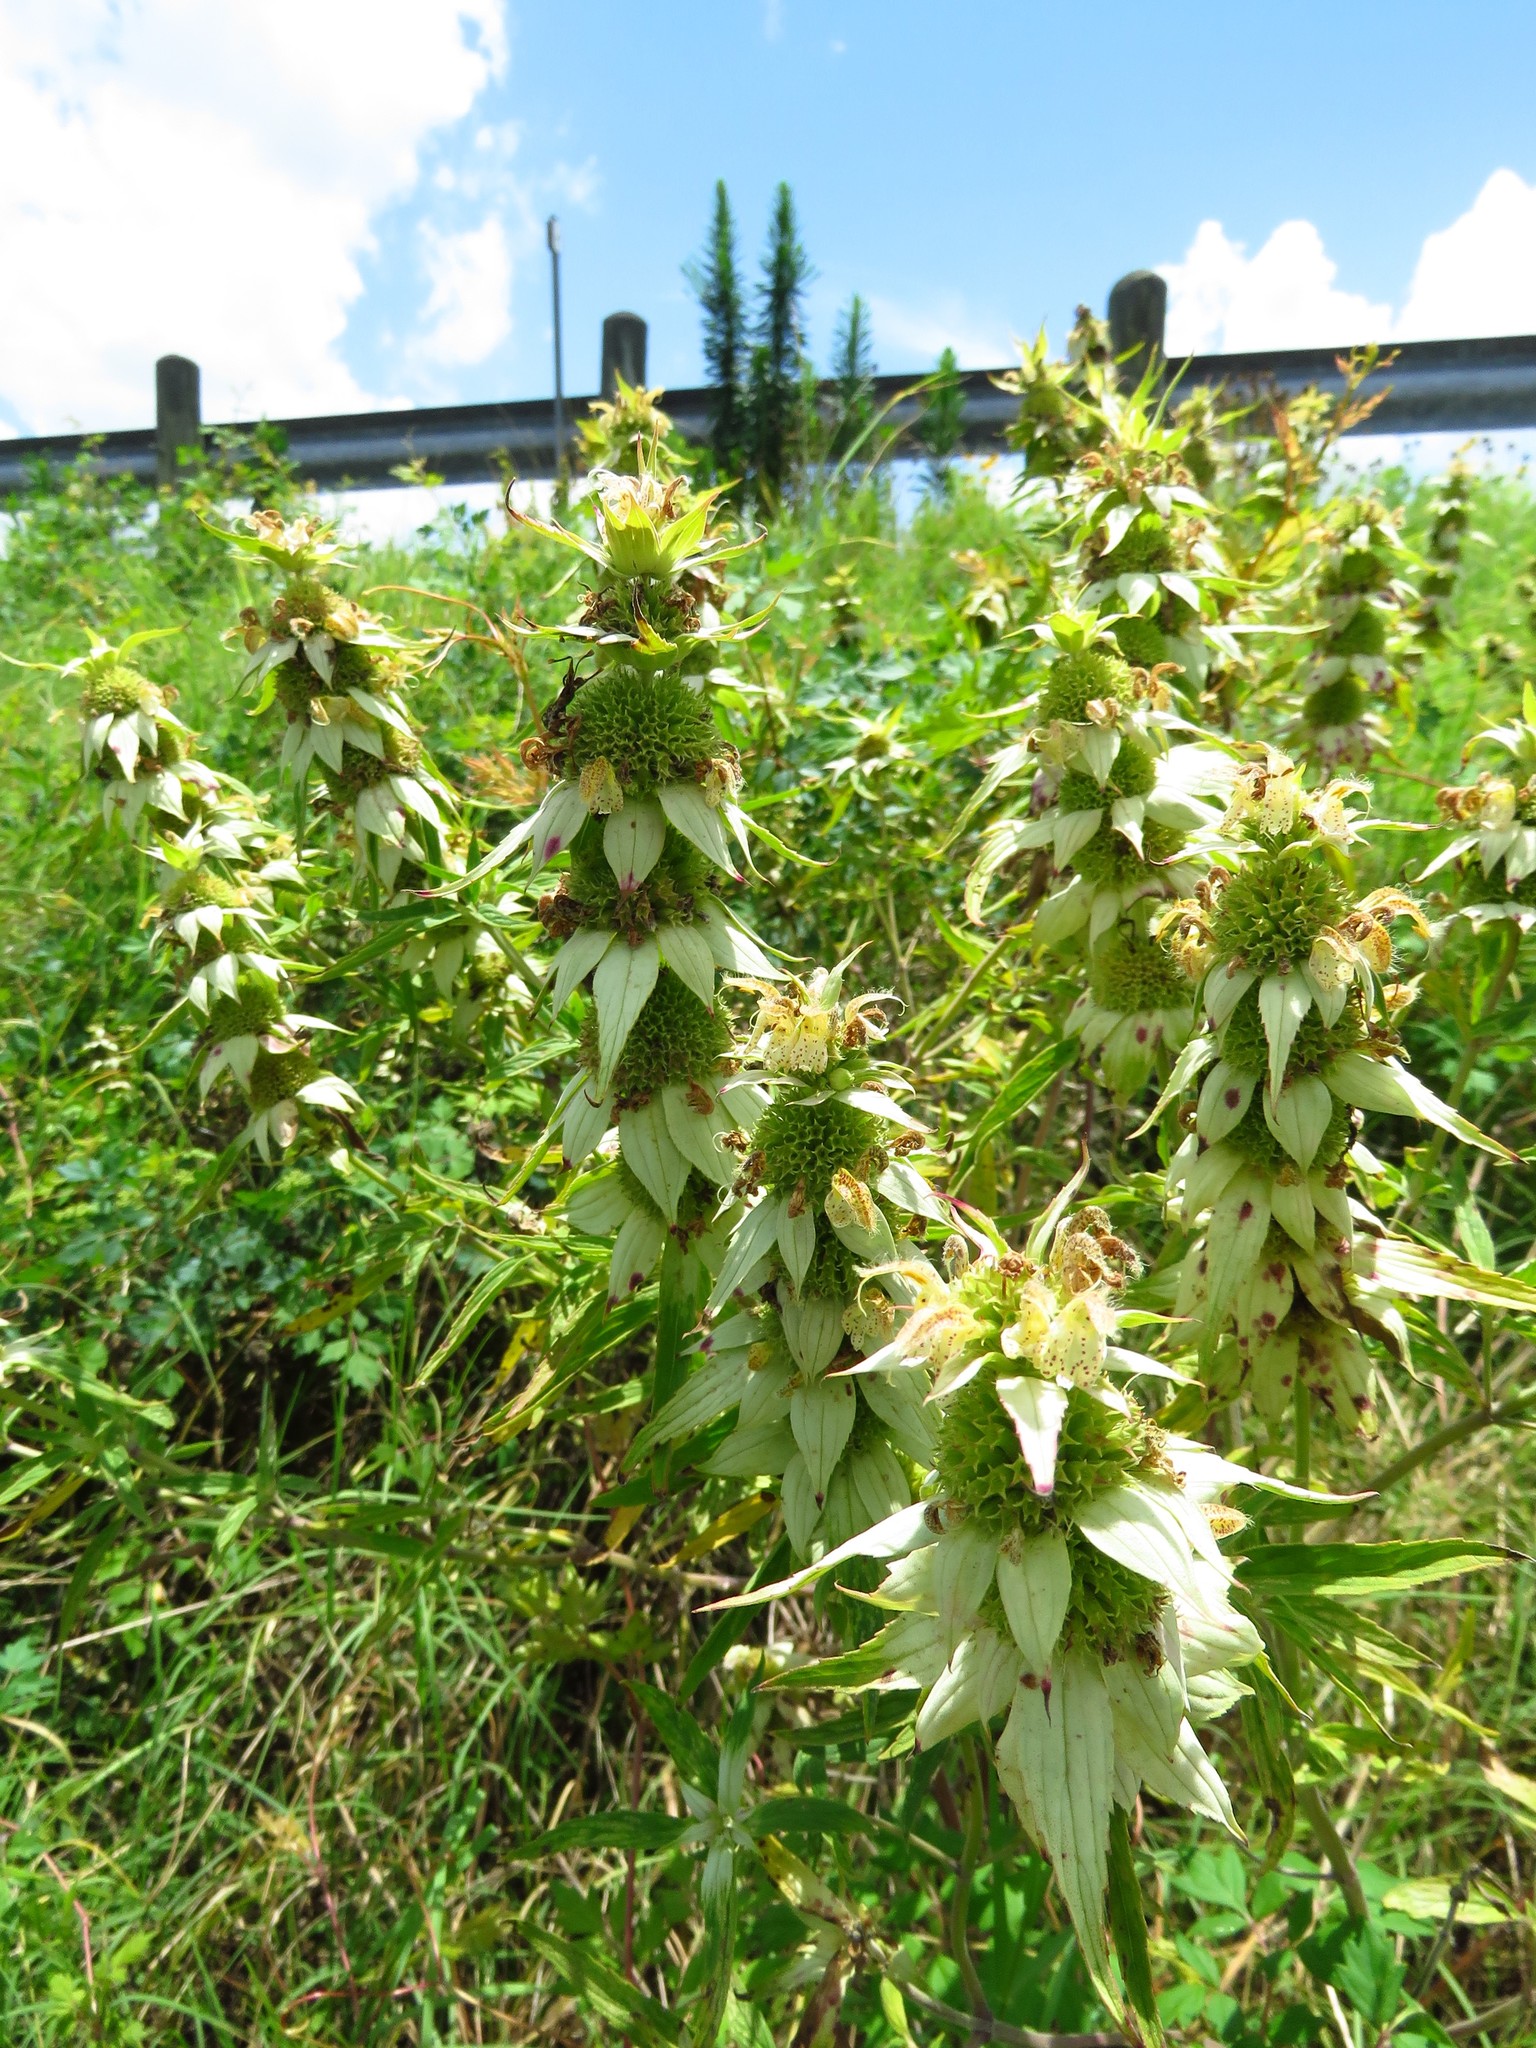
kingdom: Plantae
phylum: Tracheophyta
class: Magnoliopsida
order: Lamiales
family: Lamiaceae
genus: Monarda
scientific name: Monarda punctata
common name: Dotted monarda
